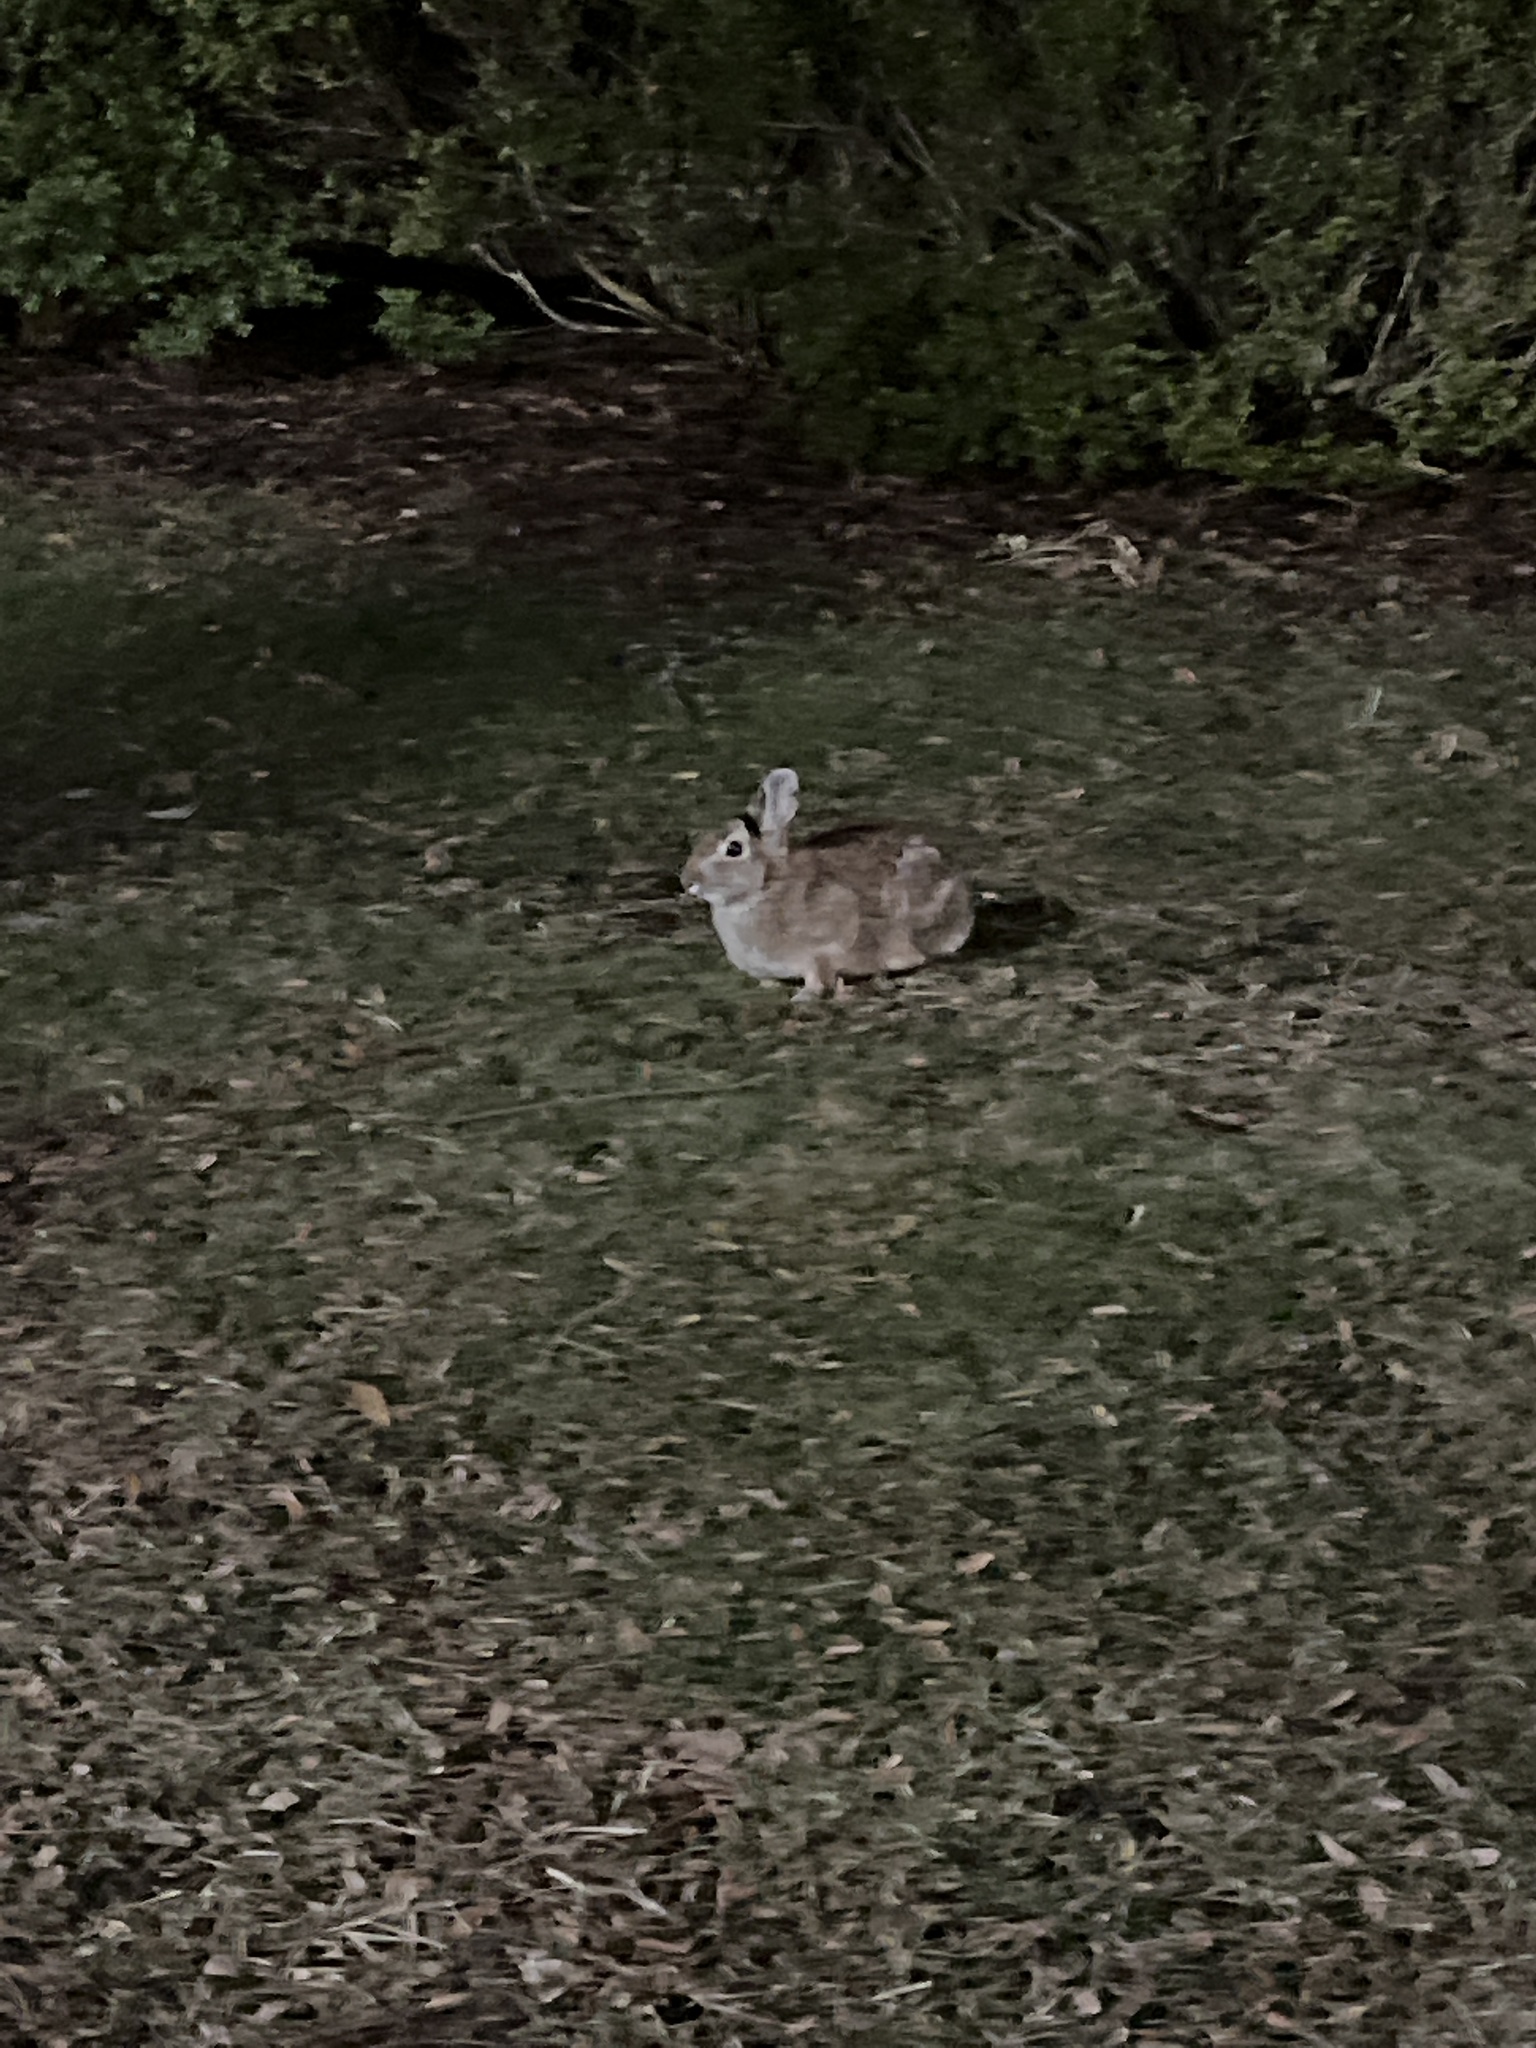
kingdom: Animalia
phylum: Chordata
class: Mammalia
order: Lagomorpha
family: Leporidae
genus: Sylvilagus
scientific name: Sylvilagus floridanus
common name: Eastern cottontail
